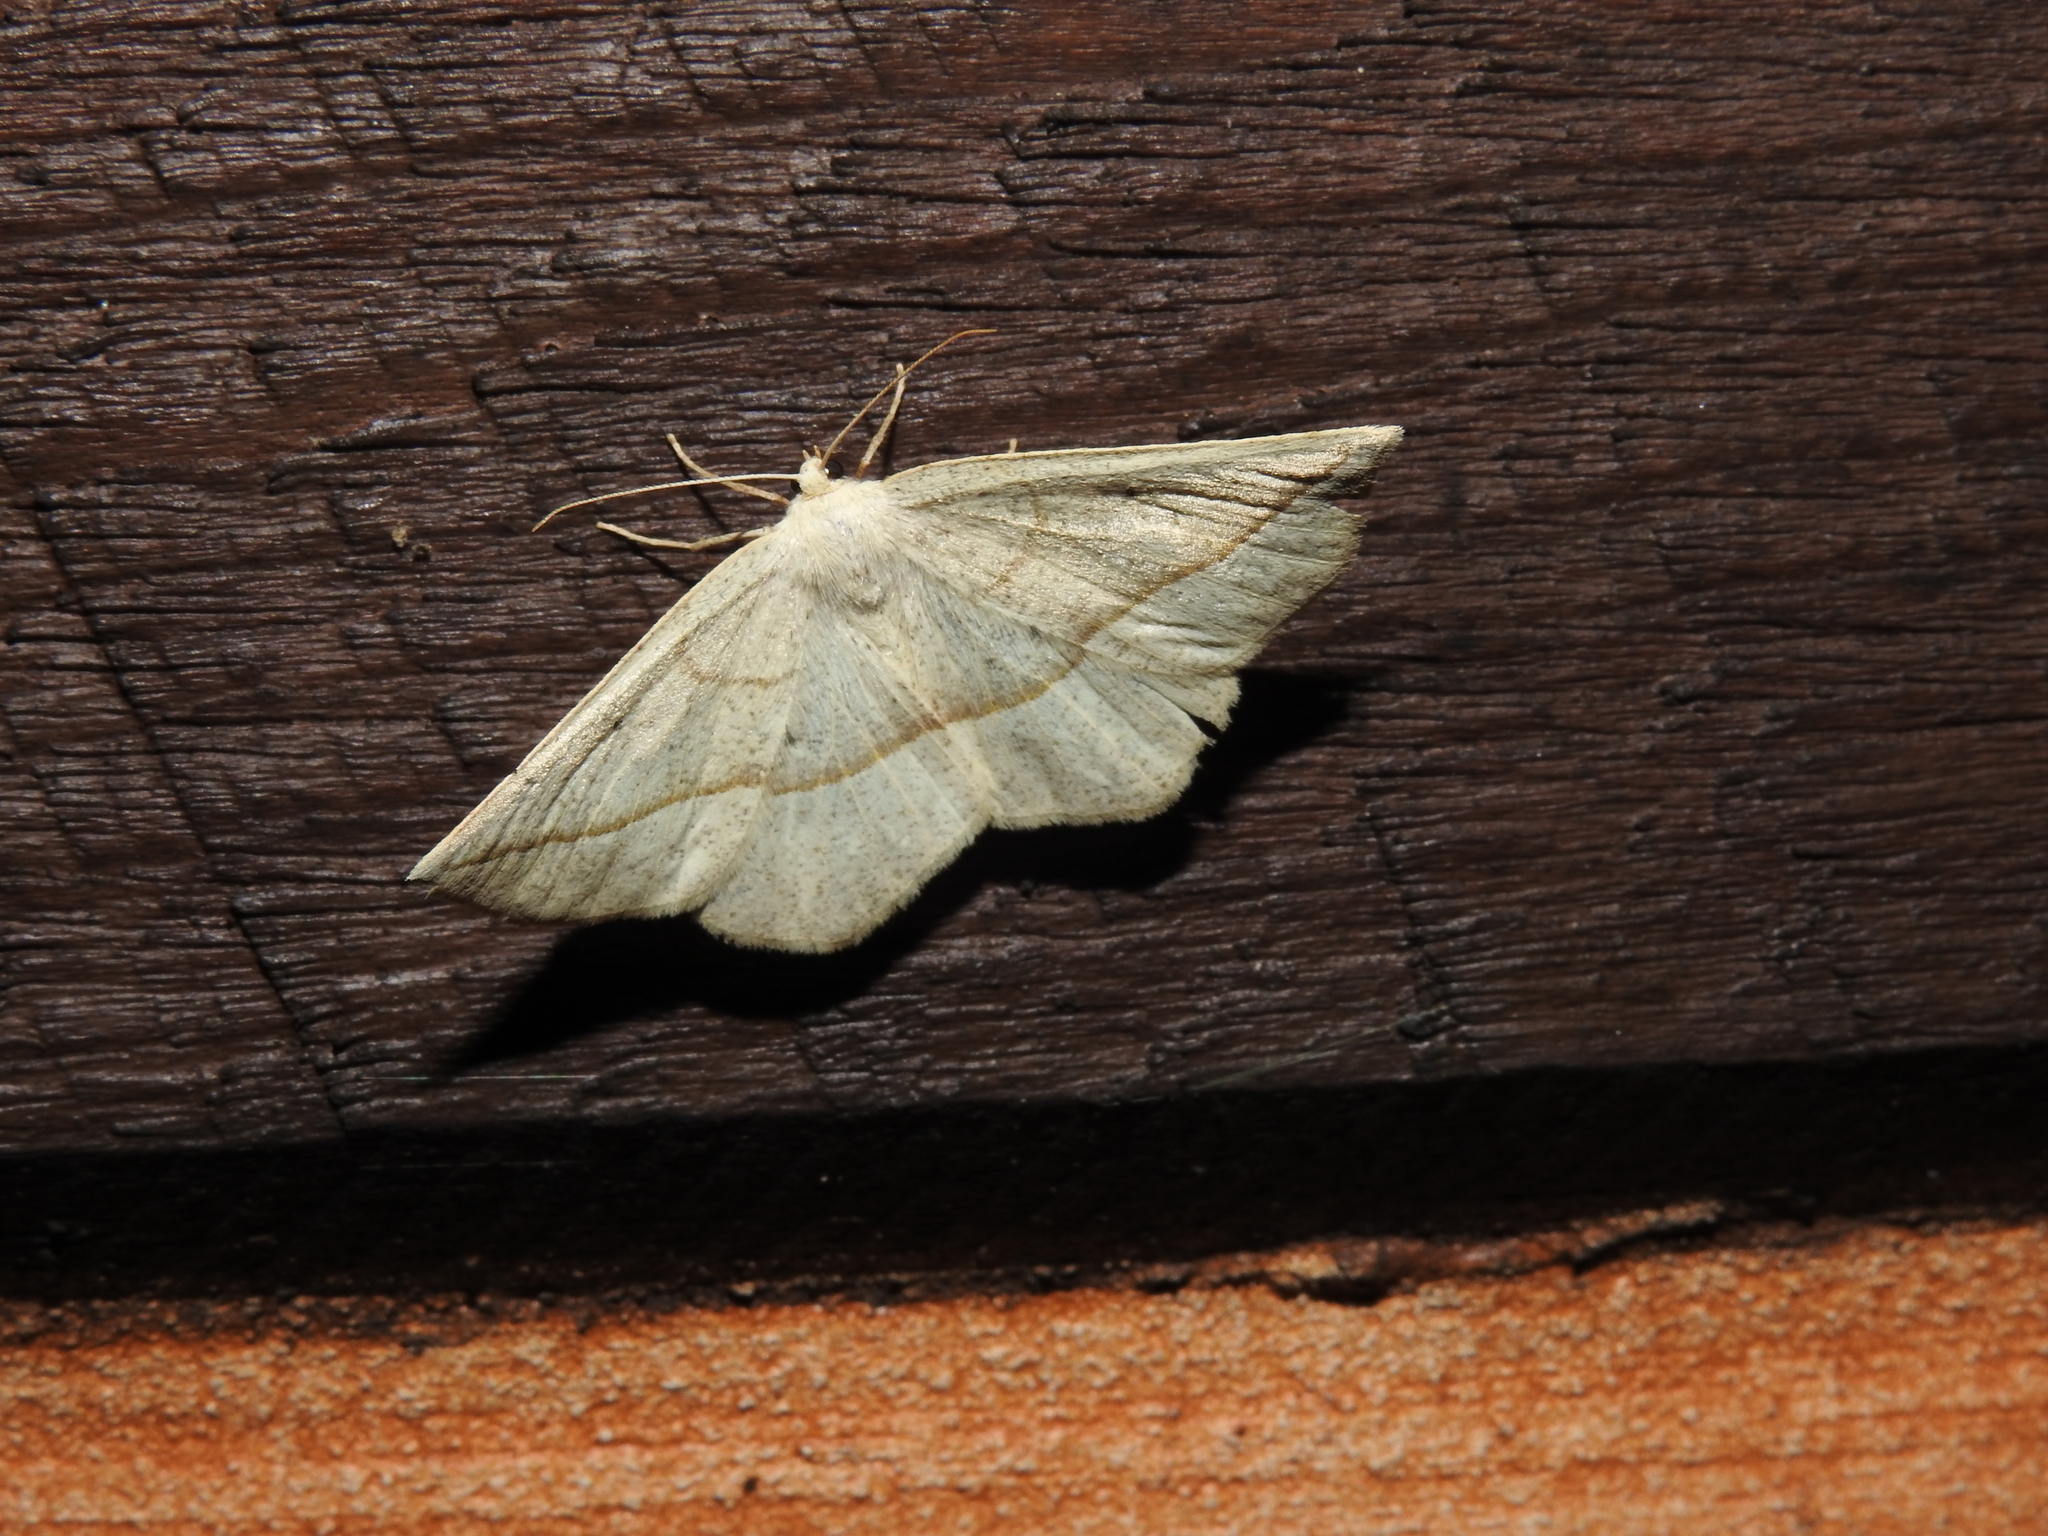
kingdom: Animalia
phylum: Arthropoda
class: Insecta
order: Lepidoptera
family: Geometridae
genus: Eusarca
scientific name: Eusarca confusaria
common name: Confused eusarca
